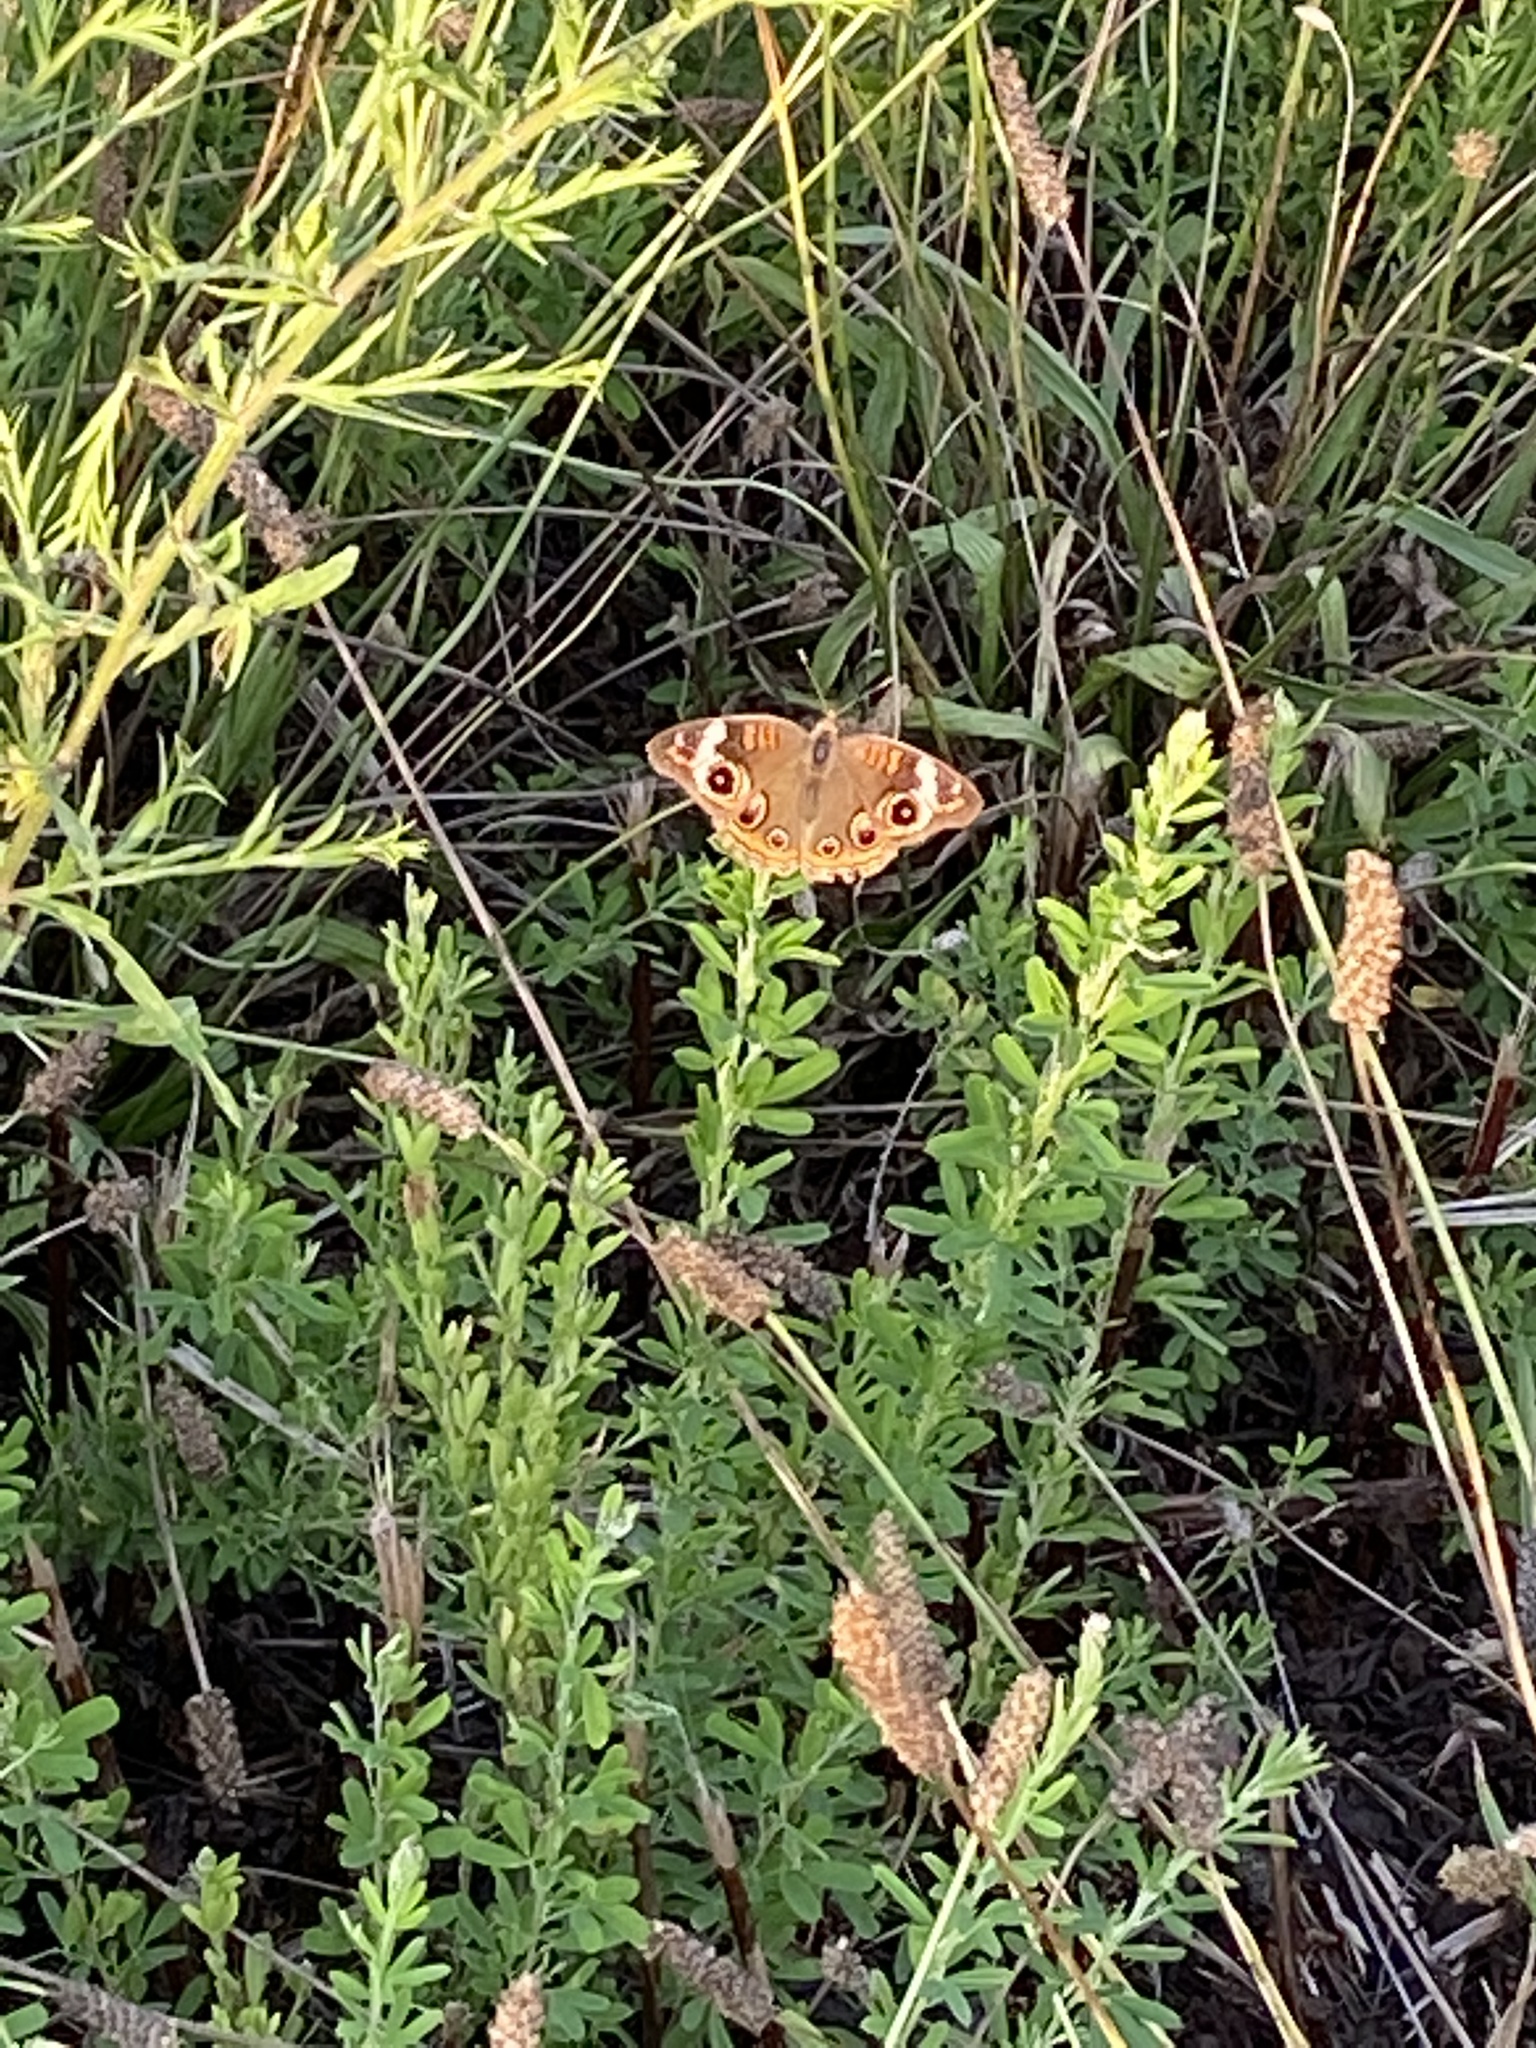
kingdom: Animalia
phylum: Arthropoda
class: Insecta
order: Lepidoptera
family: Nymphalidae
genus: Junonia
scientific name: Junonia coenia
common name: Common buckeye
